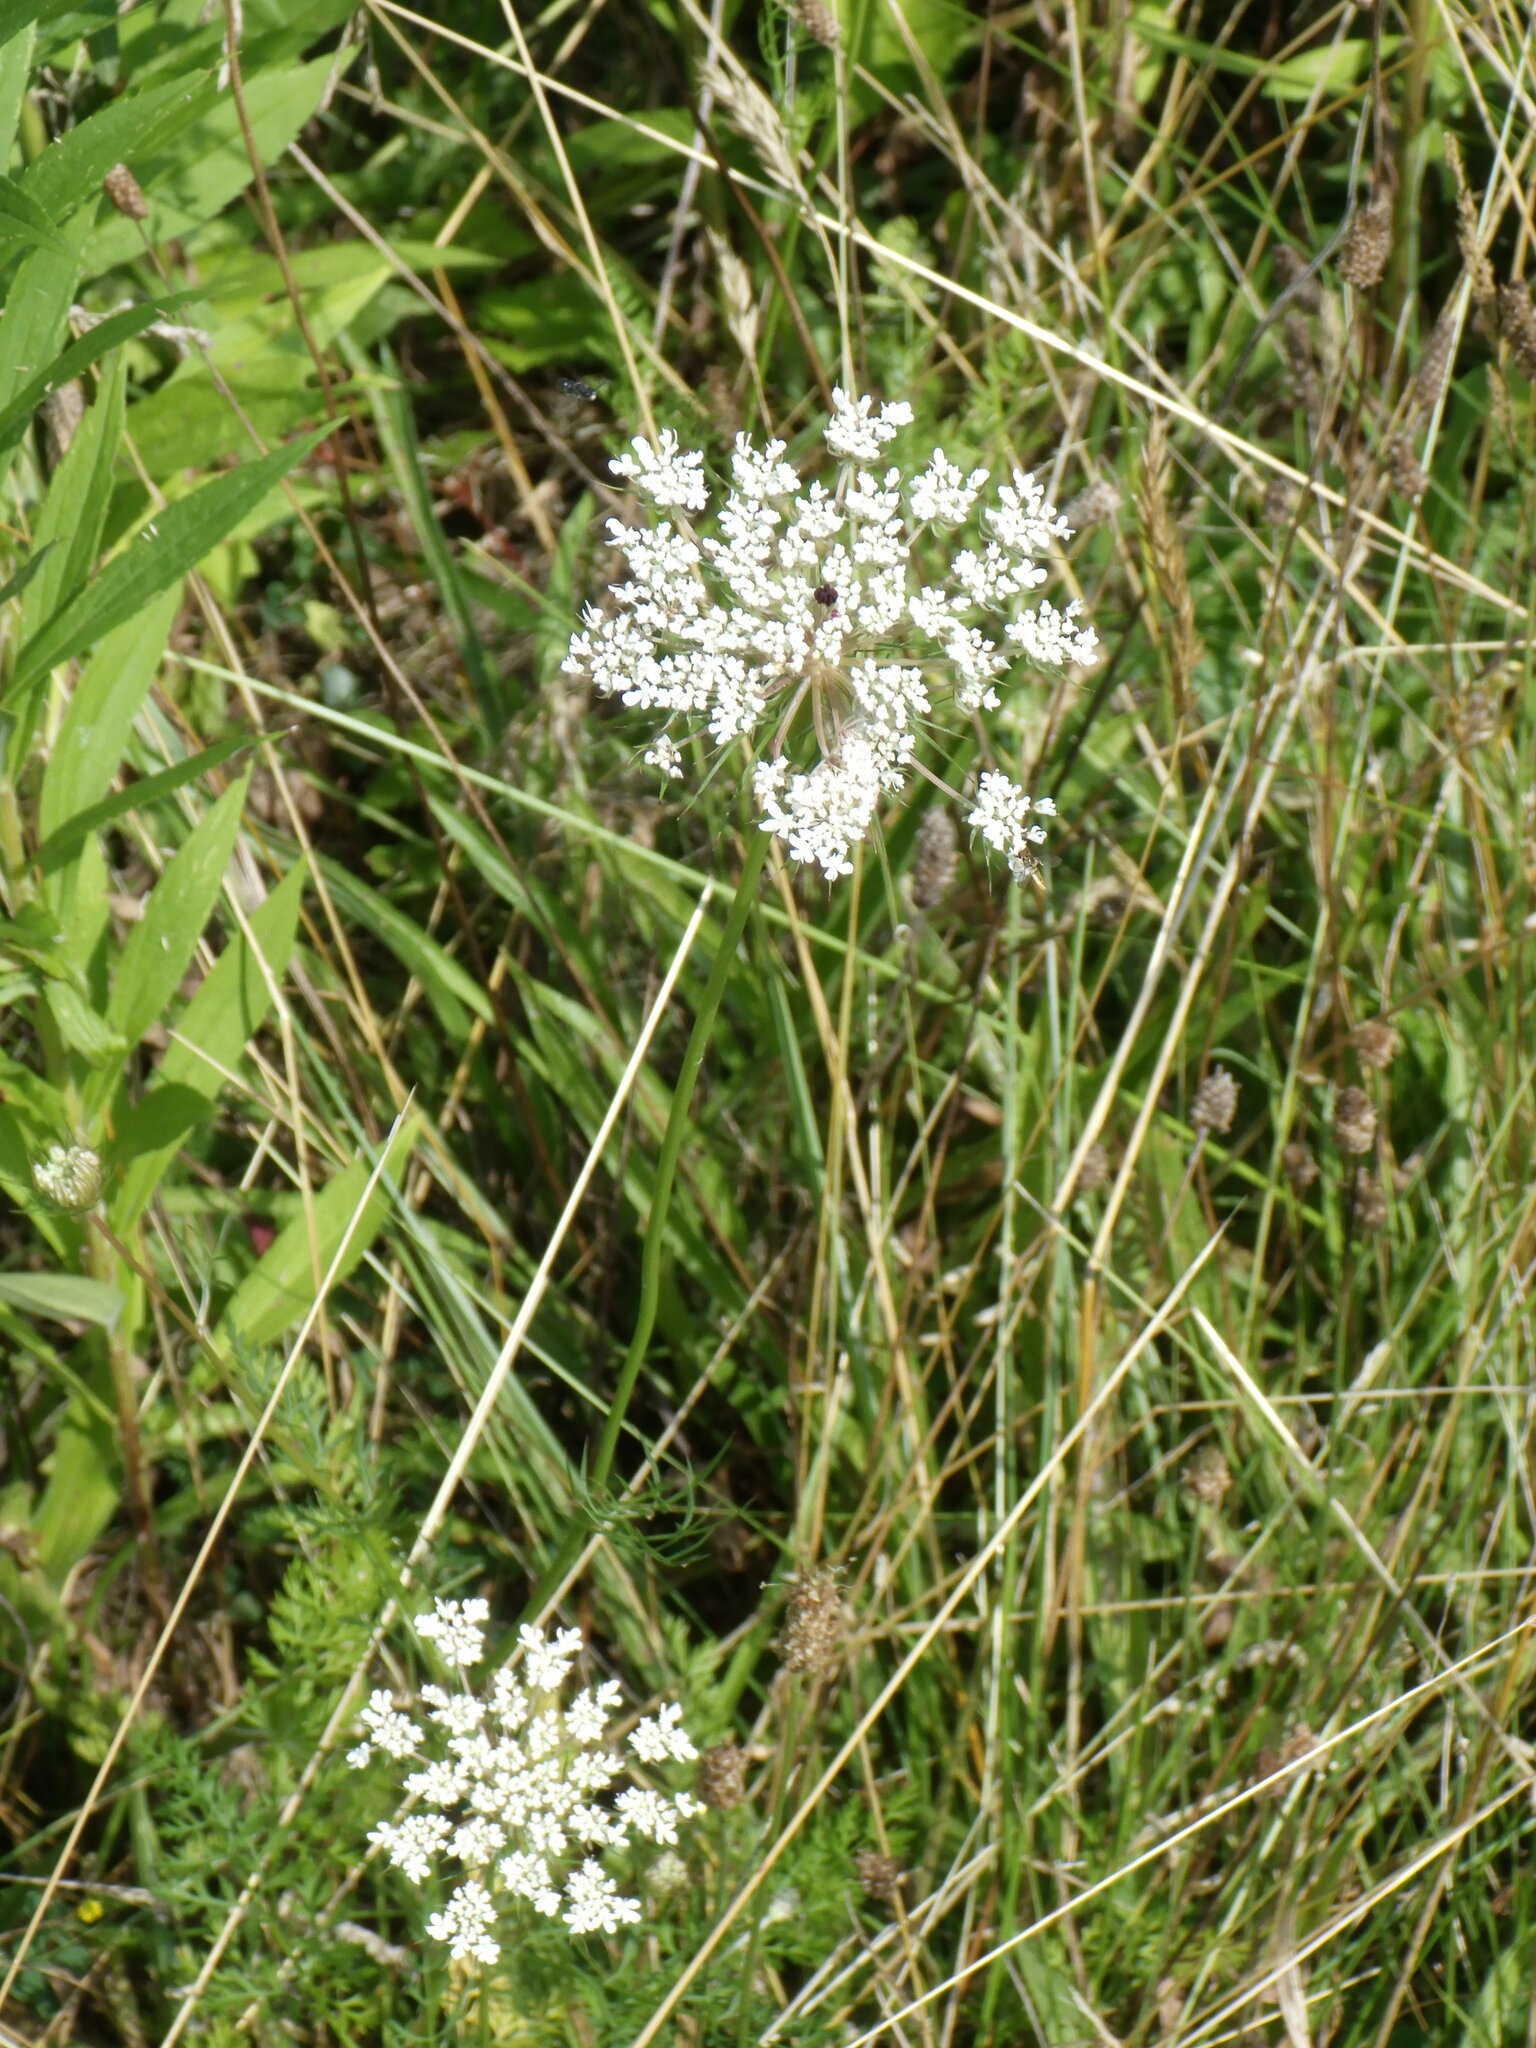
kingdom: Plantae
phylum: Tracheophyta
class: Magnoliopsida
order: Apiales
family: Apiaceae
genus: Daucus
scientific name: Daucus carota
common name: Wild carrot
